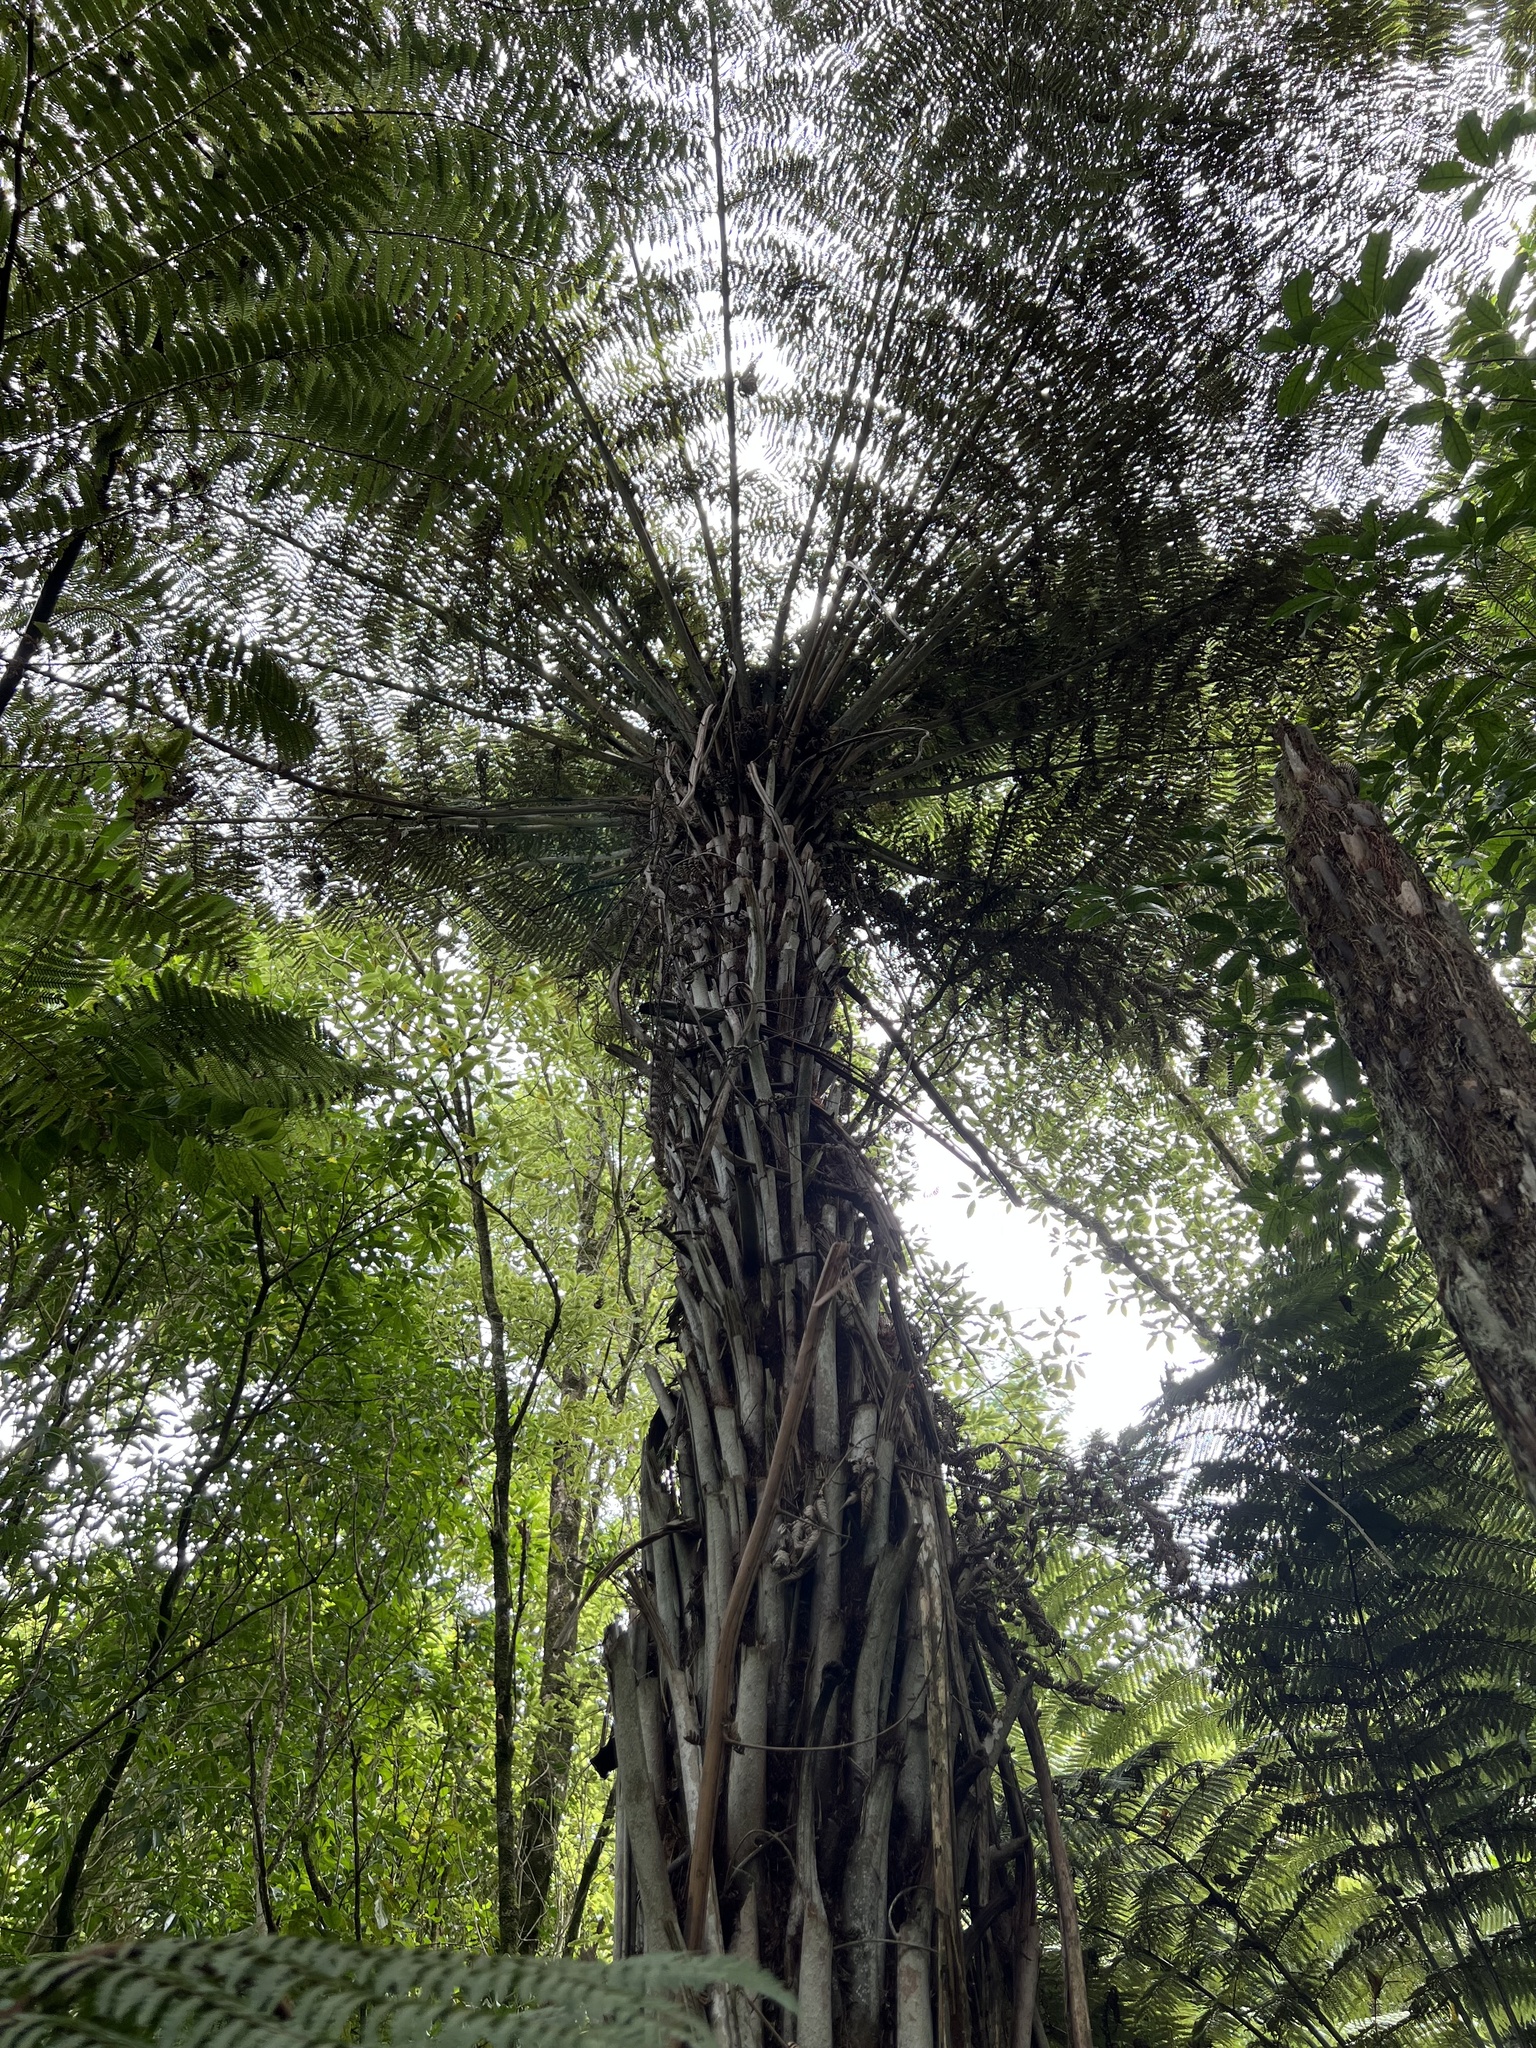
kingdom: Plantae
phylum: Tracheophyta
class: Polypodiopsida
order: Cyatheales
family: Cyatheaceae
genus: Alsophila
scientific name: Alsophila dealbata
